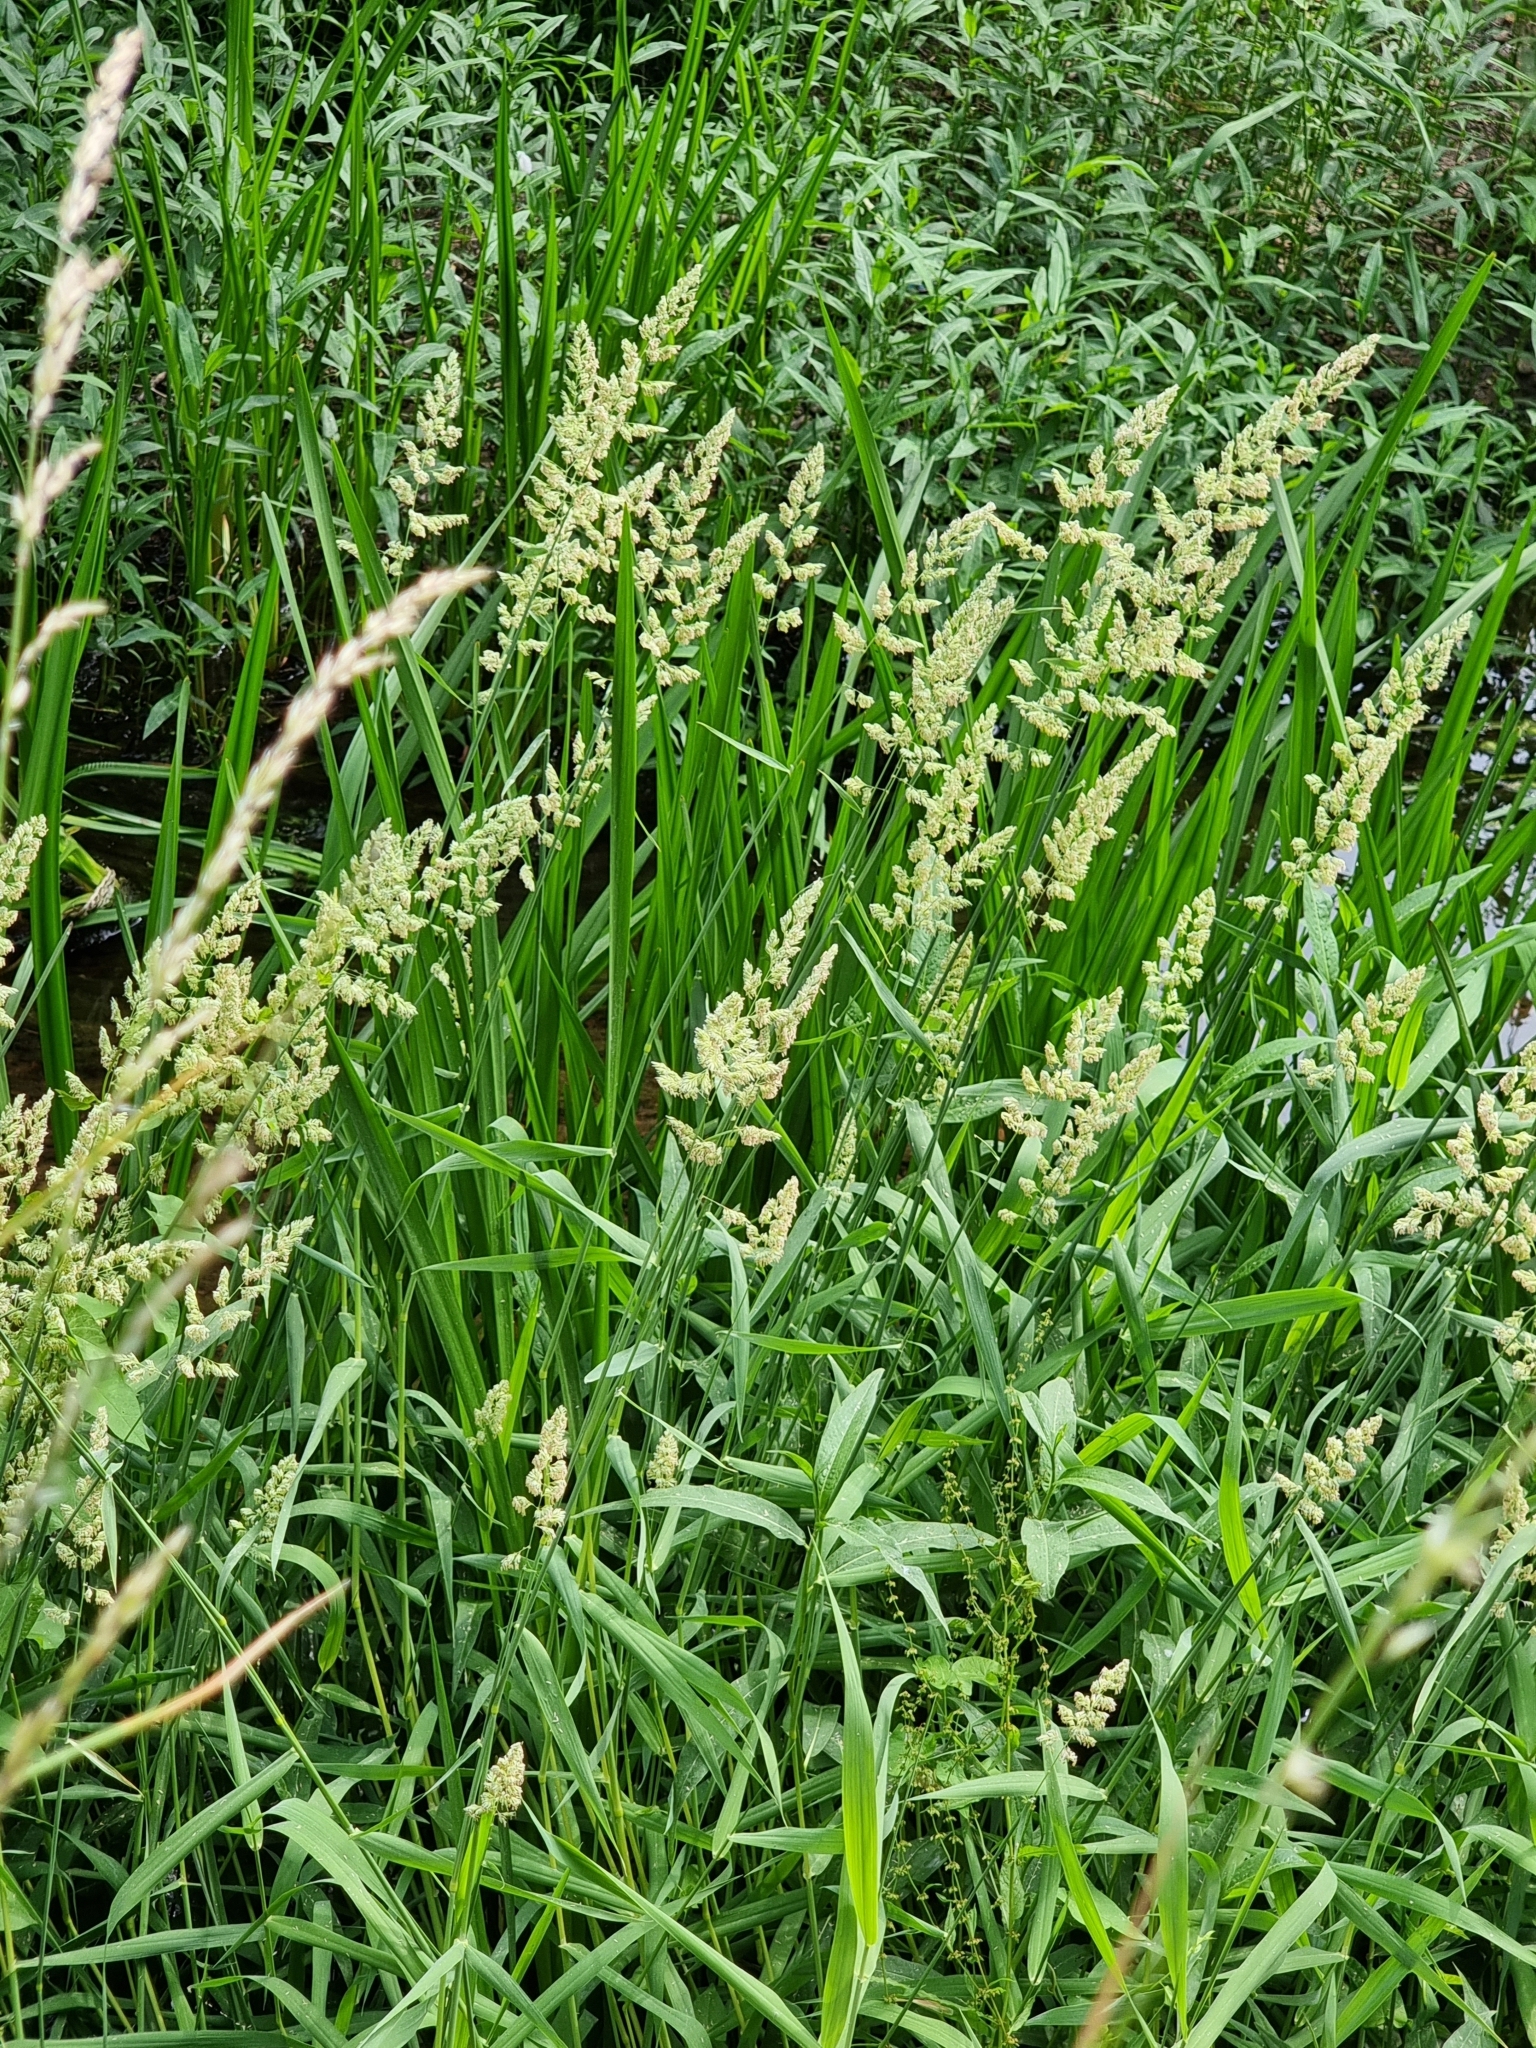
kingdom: Plantae
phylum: Tracheophyta
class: Liliopsida
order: Poales
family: Poaceae
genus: Phalaris
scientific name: Phalaris arundinacea
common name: Reed canary-grass
